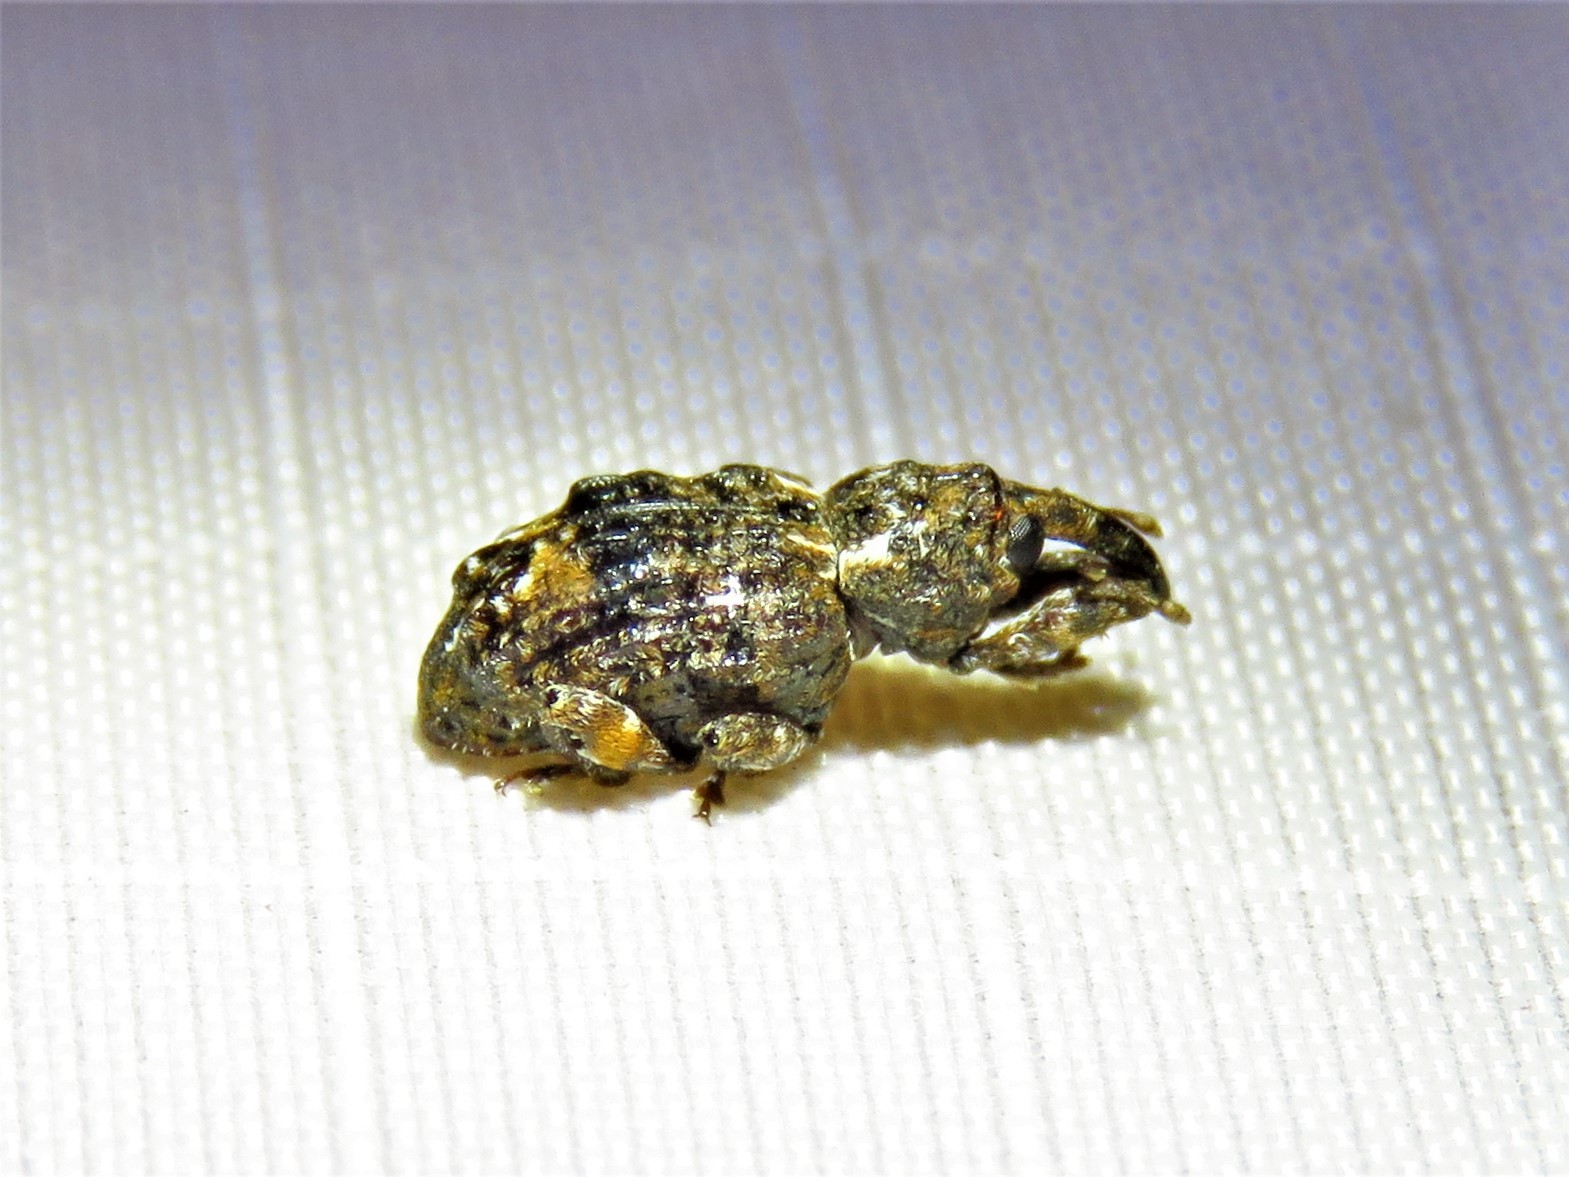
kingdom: Animalia
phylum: Arthropoda
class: Insecta
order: Coleoptera
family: Curculionidae
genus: Conotrachelus
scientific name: Conotrachelus nenuphar
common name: Plum curculio
